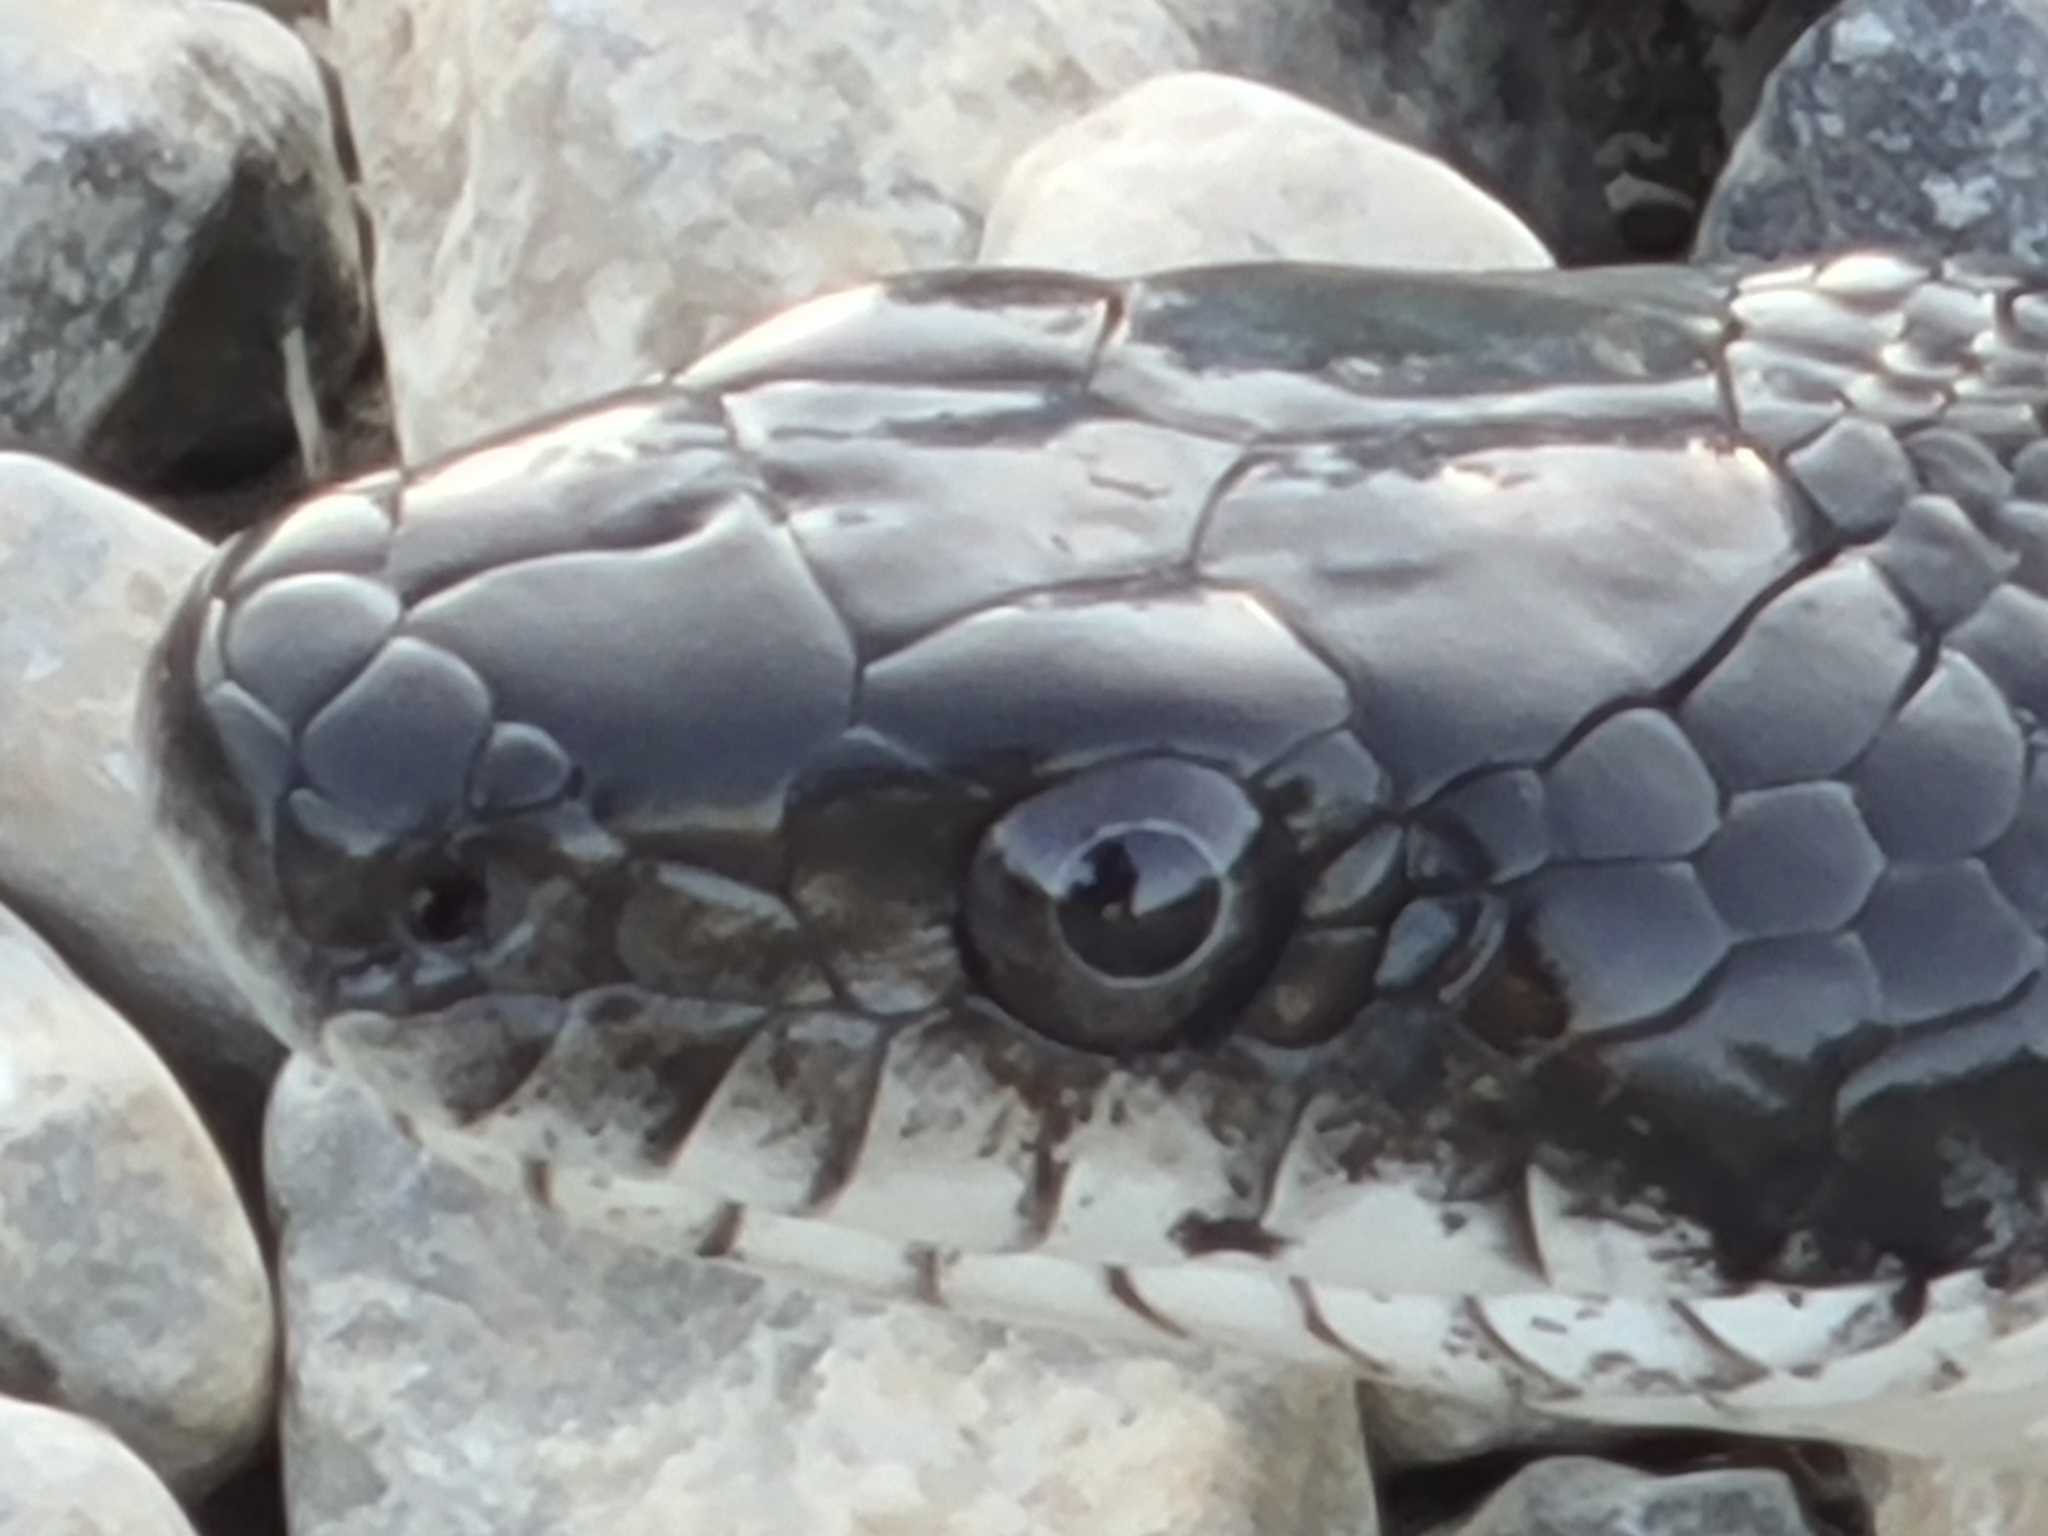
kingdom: Animalia
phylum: Chordata
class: Squamata
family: Colubridae
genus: Pantherophis
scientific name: Pantherophis
